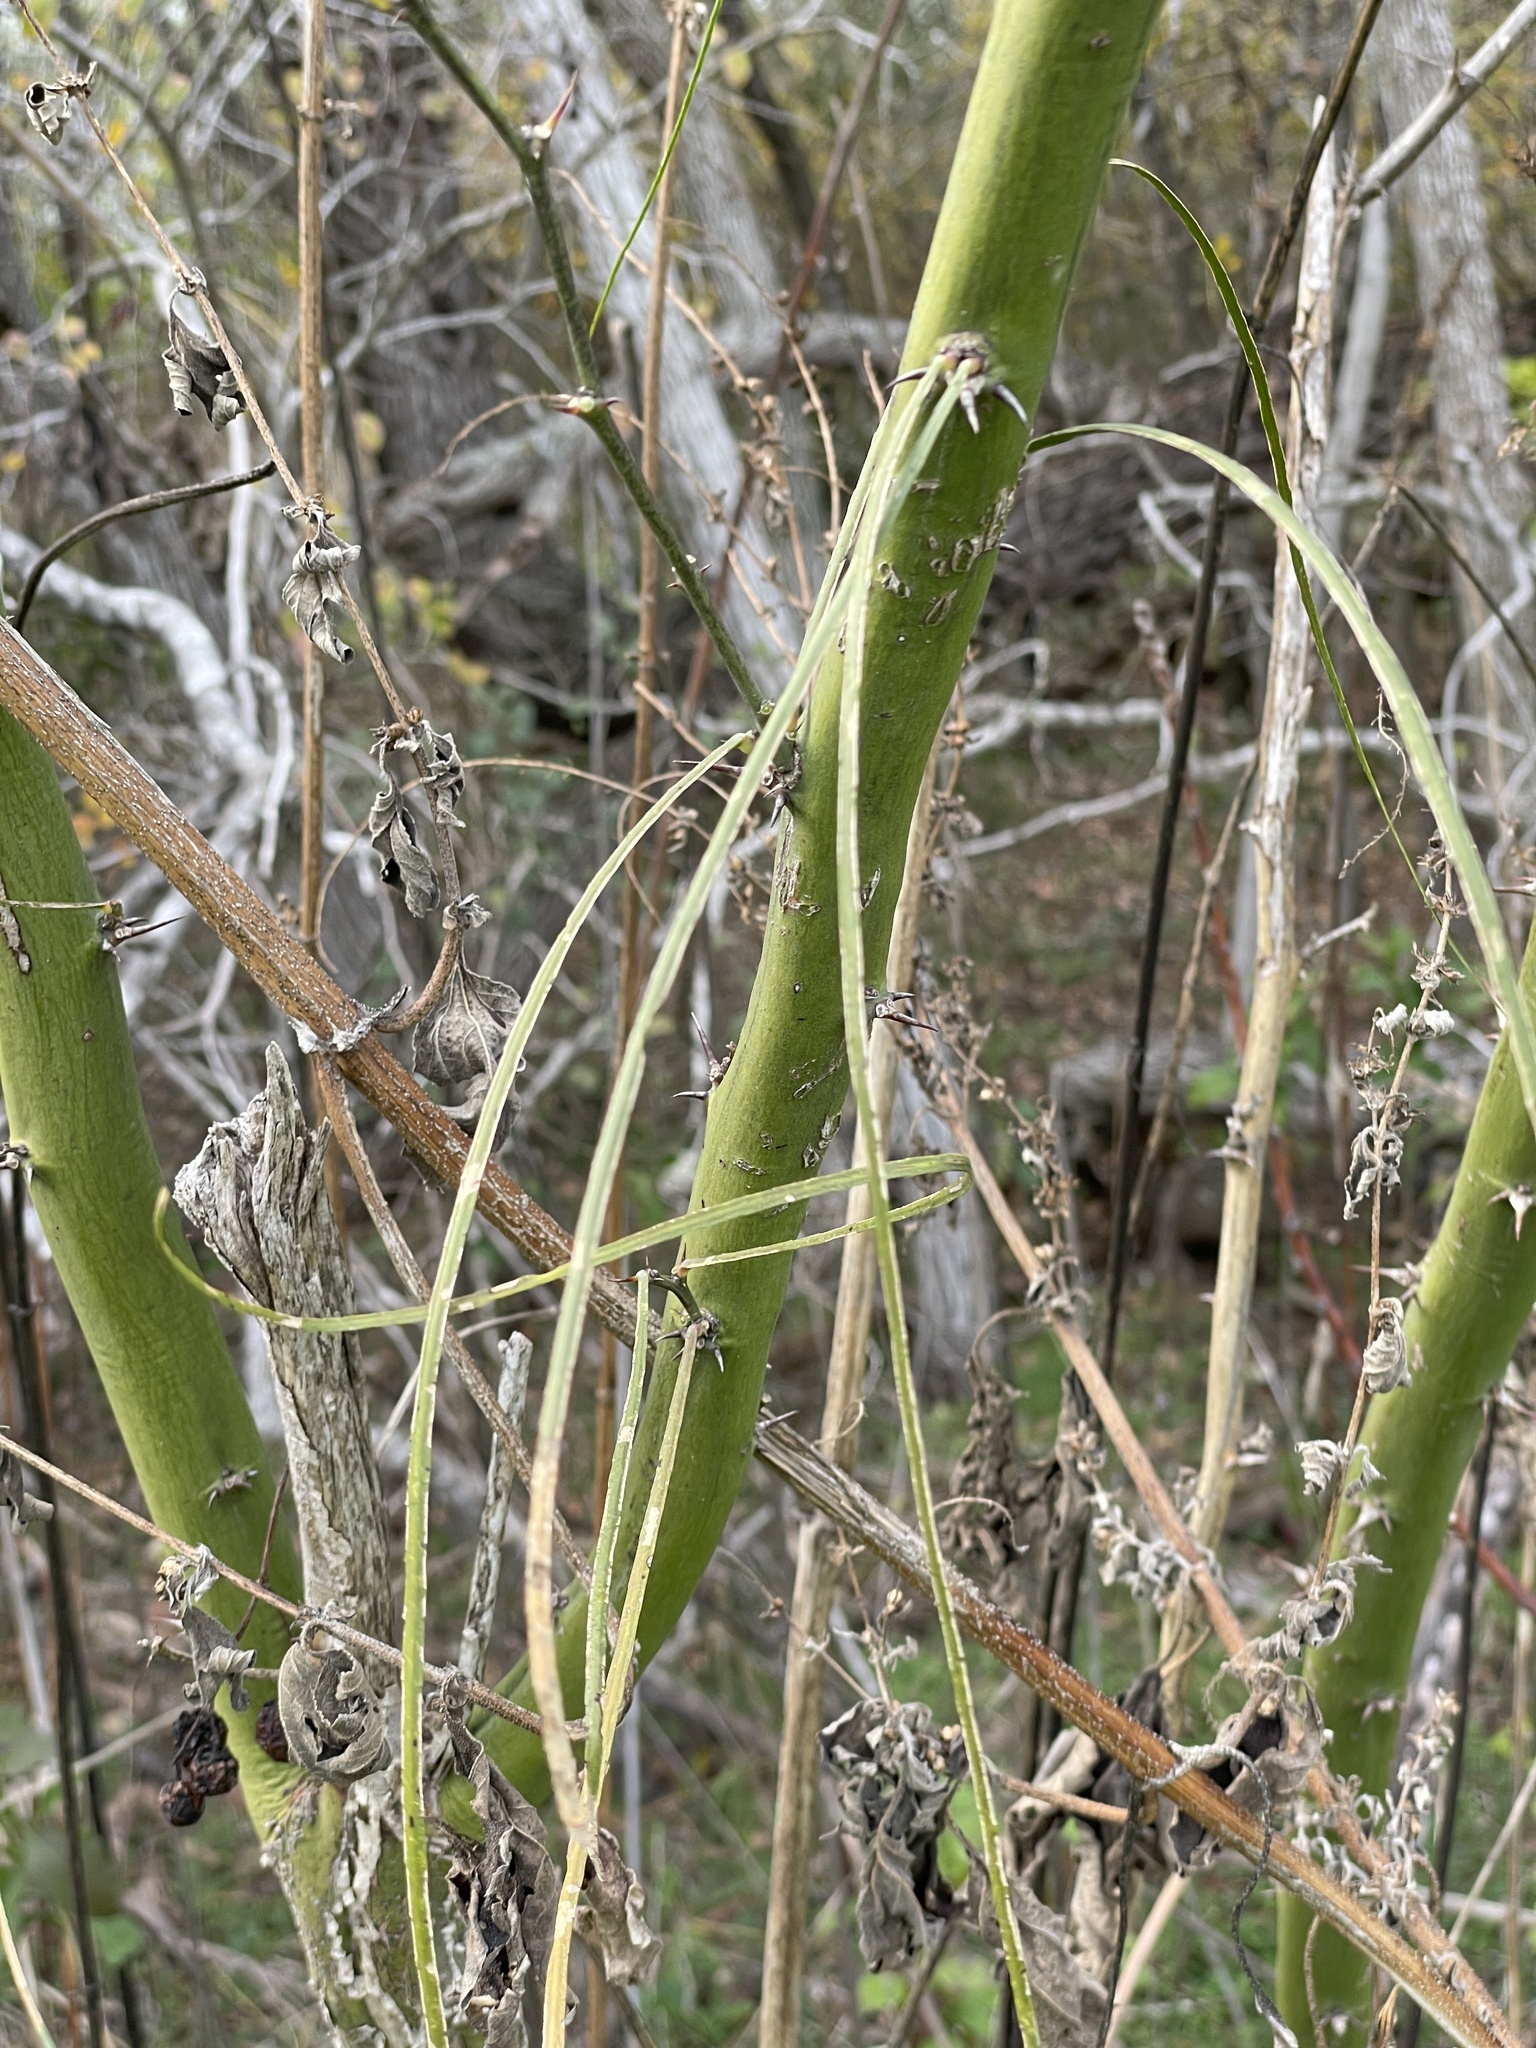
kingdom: Plantae
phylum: Tracheophyta
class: Magnoliopsida
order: Fabales
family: Fabaceae
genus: Parkinsonia
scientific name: Parkinsonia aculeata
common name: Jerusalem thorn
